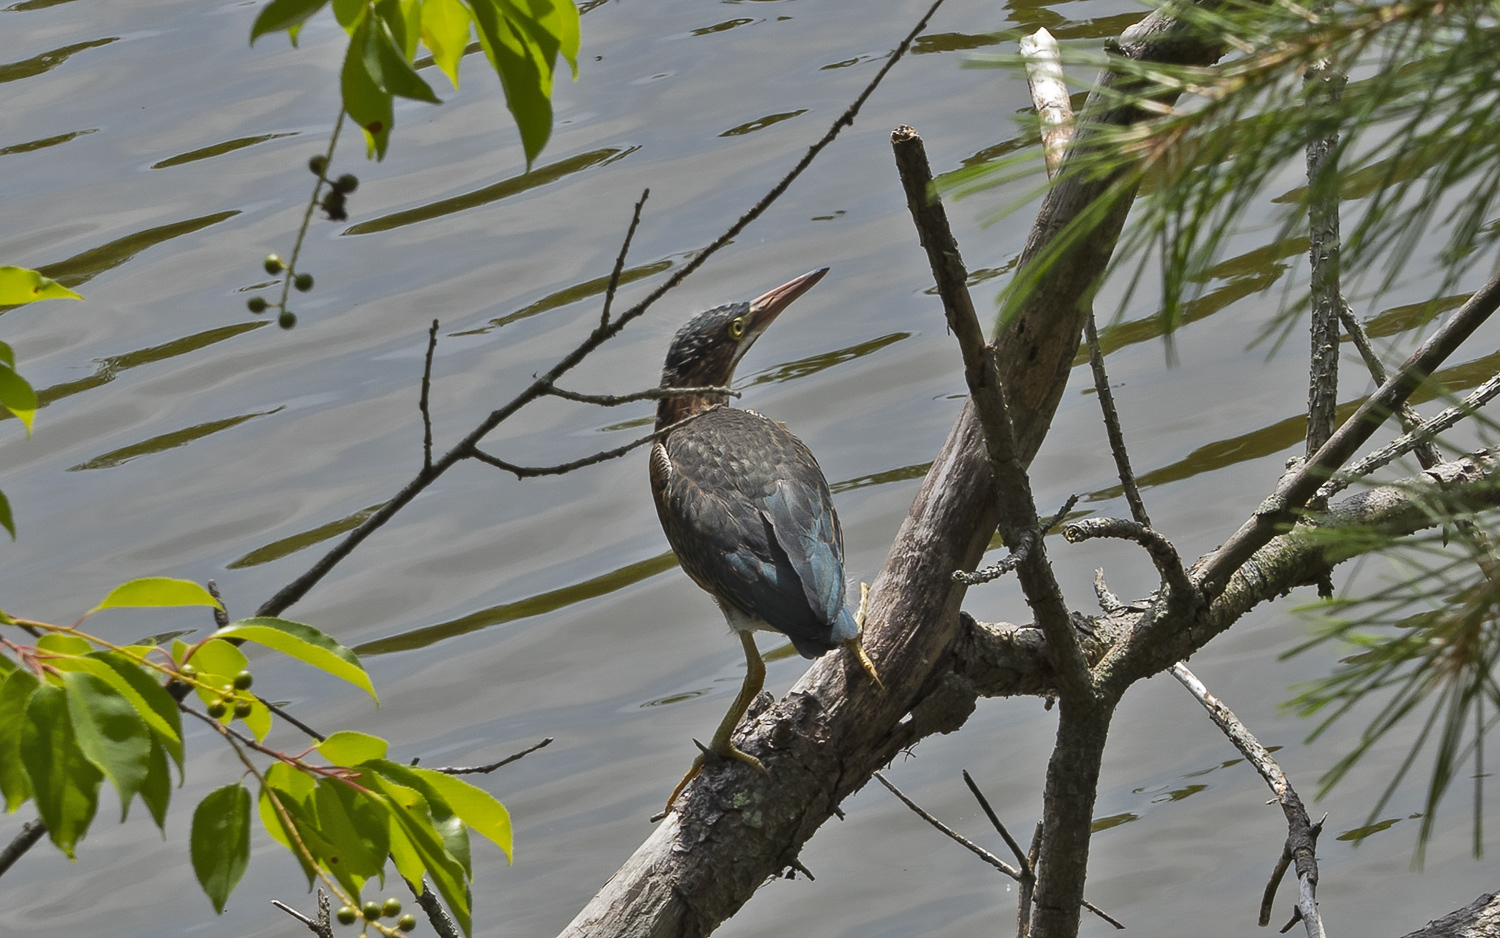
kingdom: Animalia
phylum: Chordata
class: Aves
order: Pelecaniformes
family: Ardeidae
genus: Butorides
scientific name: Butorides virescens
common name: Green heron
